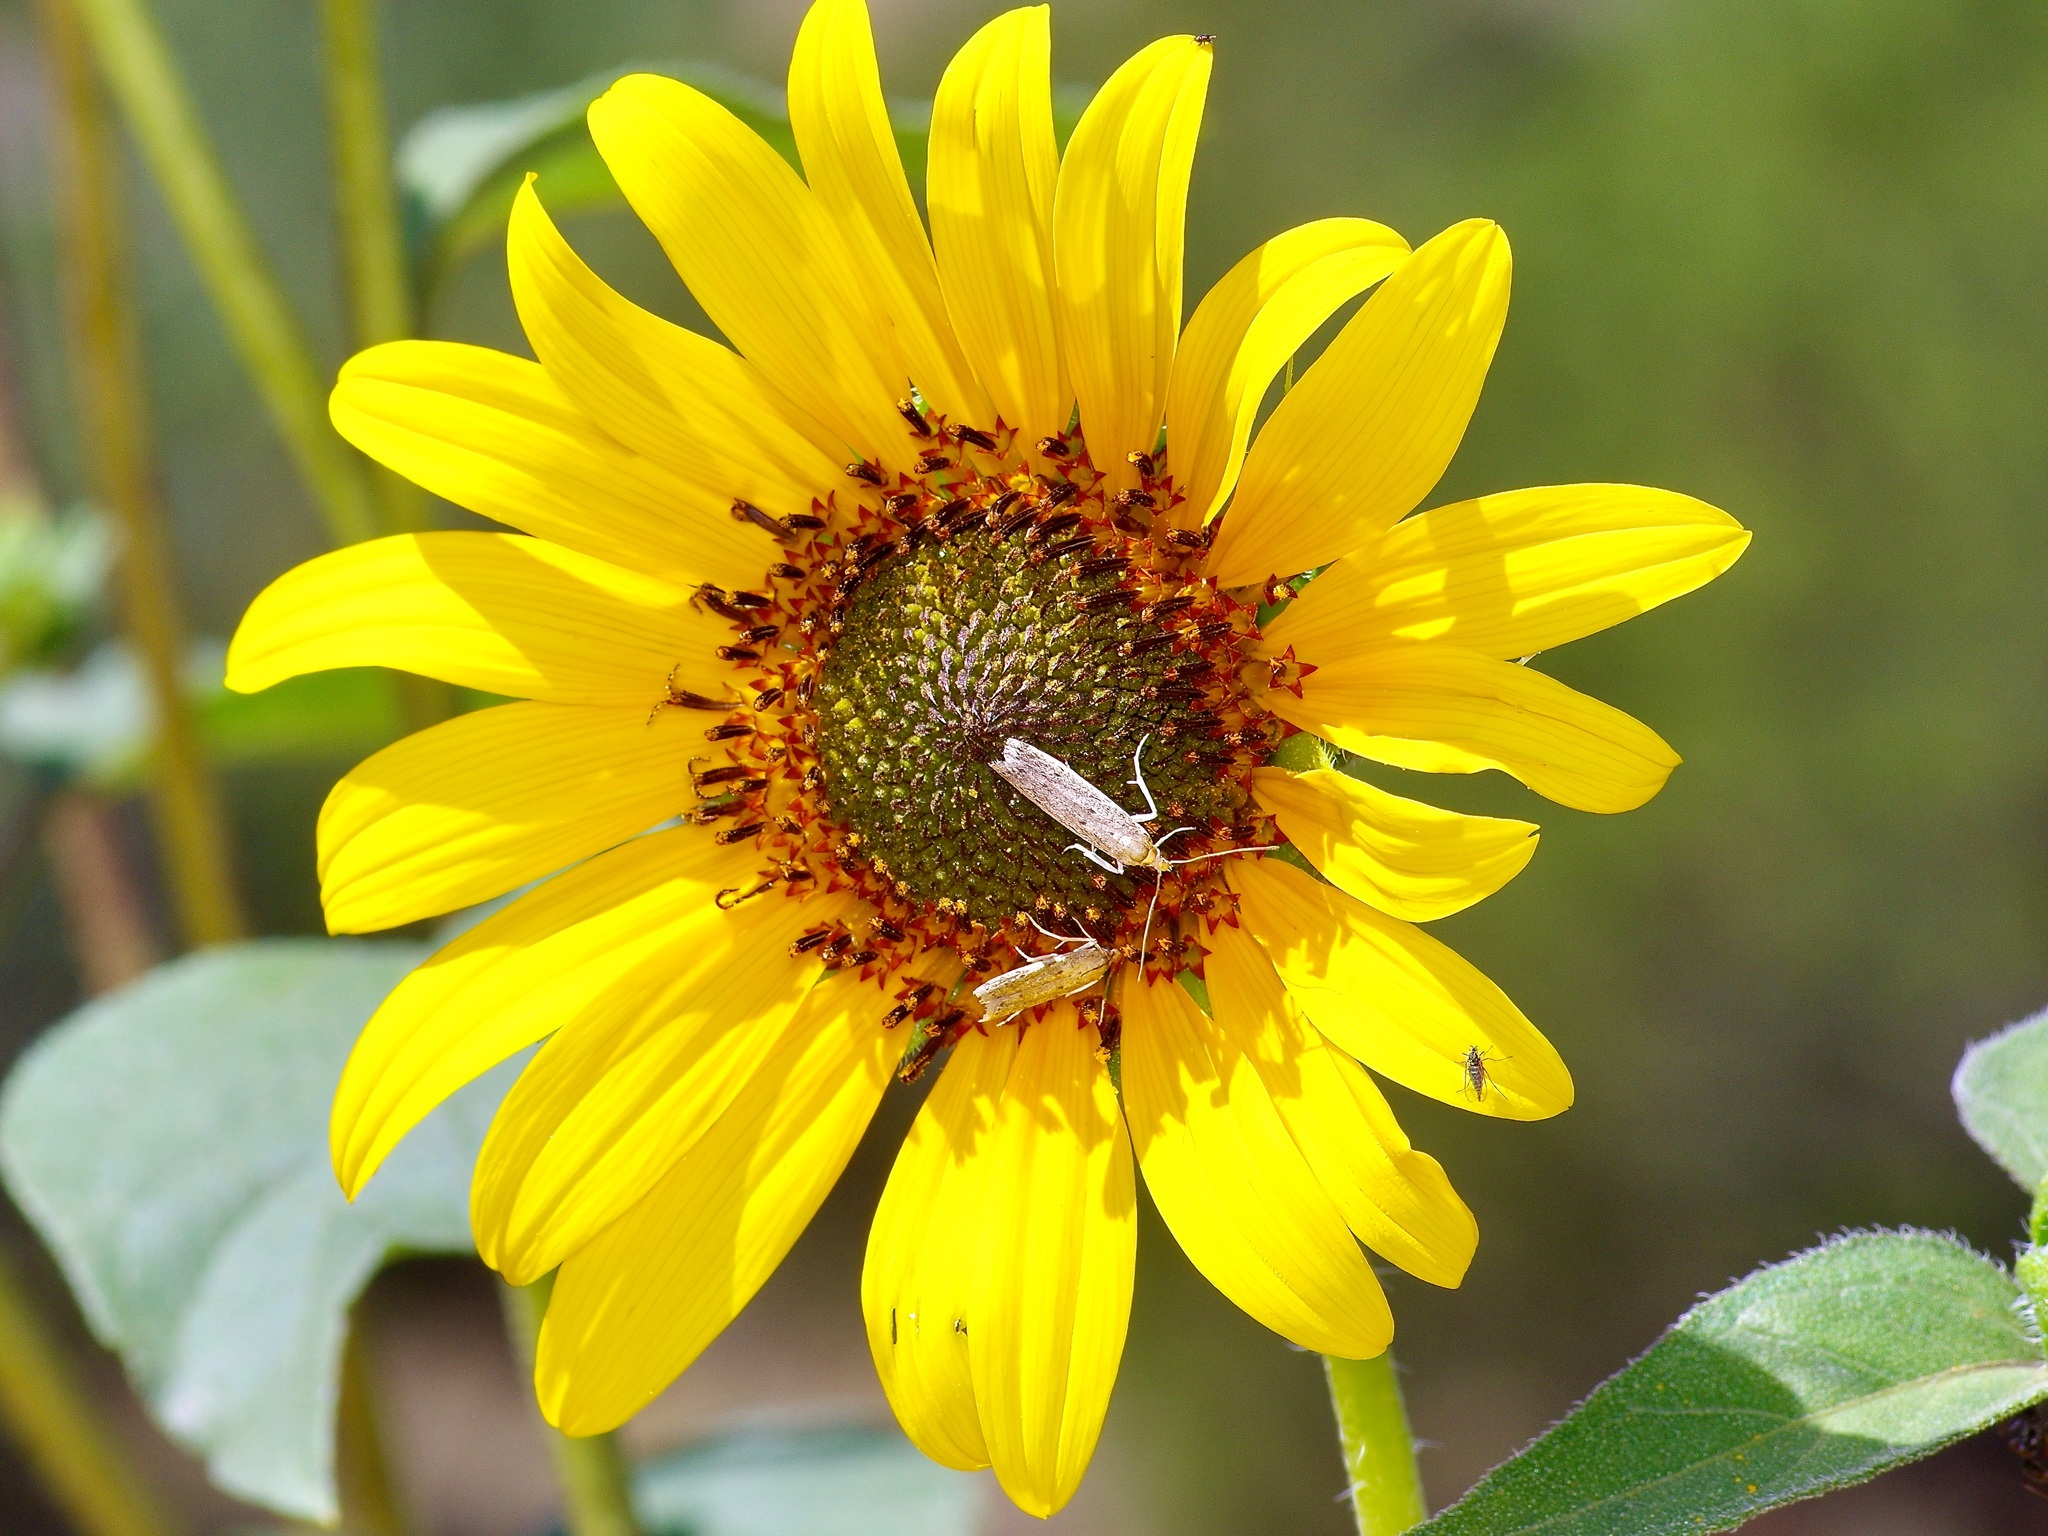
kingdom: Animalia
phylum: Arthropoda
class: Insecta
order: Lepidoptera
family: Pyralidae
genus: Homoeosoma
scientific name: Homoeosoma electella
